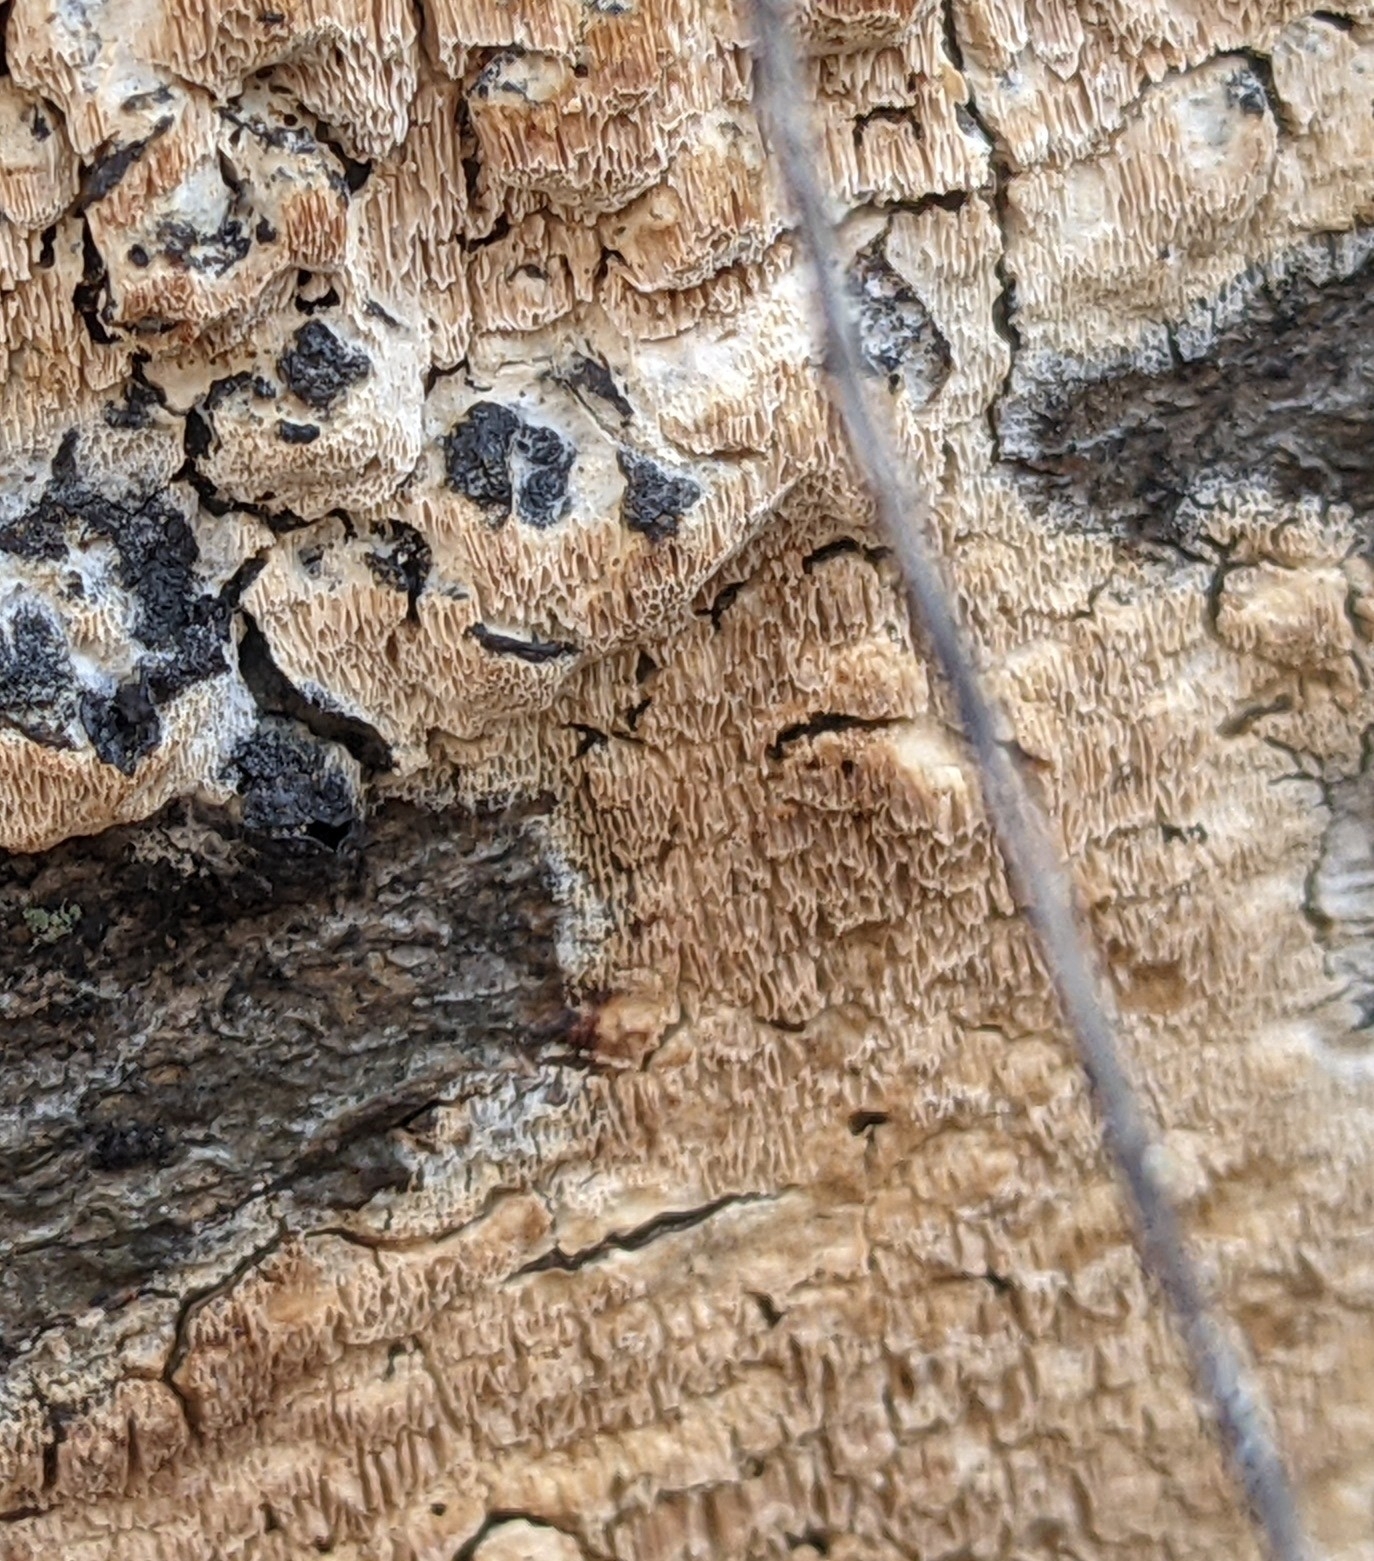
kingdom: Fungi
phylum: Basidiomycota
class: Agaricomycetes
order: Polyporales
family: Irpicaceae
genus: Irpex
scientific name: Irpex lacteus
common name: Milk-white toothed polypore
